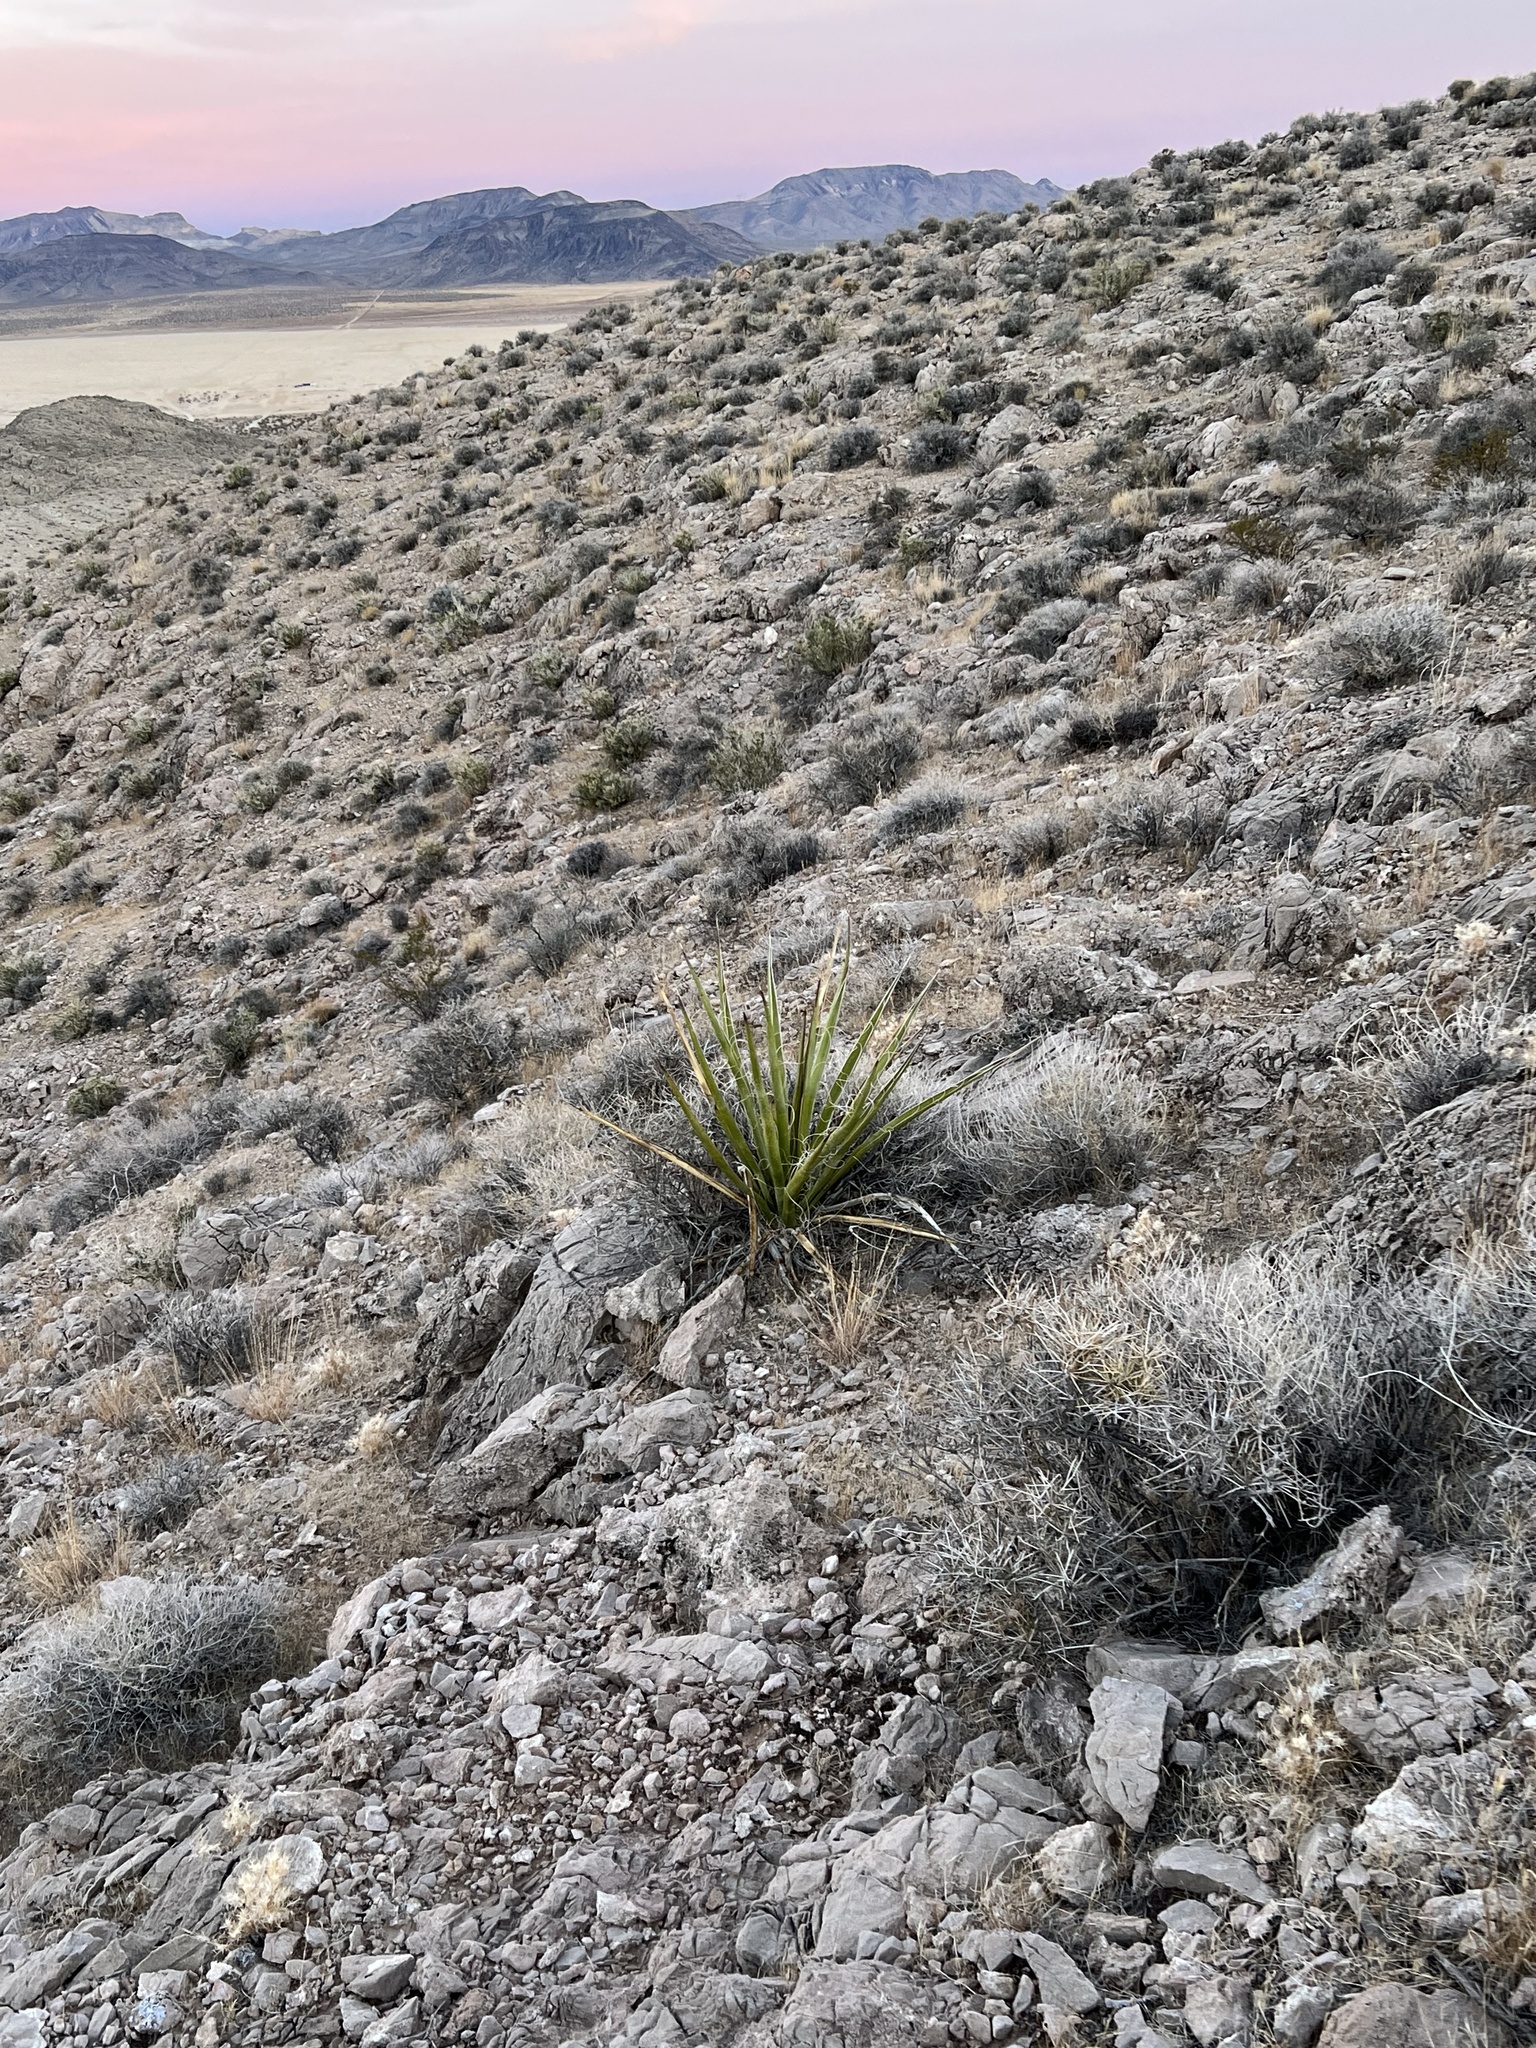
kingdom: Plantae
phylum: Tracheophyta
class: Liliopsida
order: Asparagales
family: Asparagaceae
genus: Yucca
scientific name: Yucca schidigera
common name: Mojave yucca
